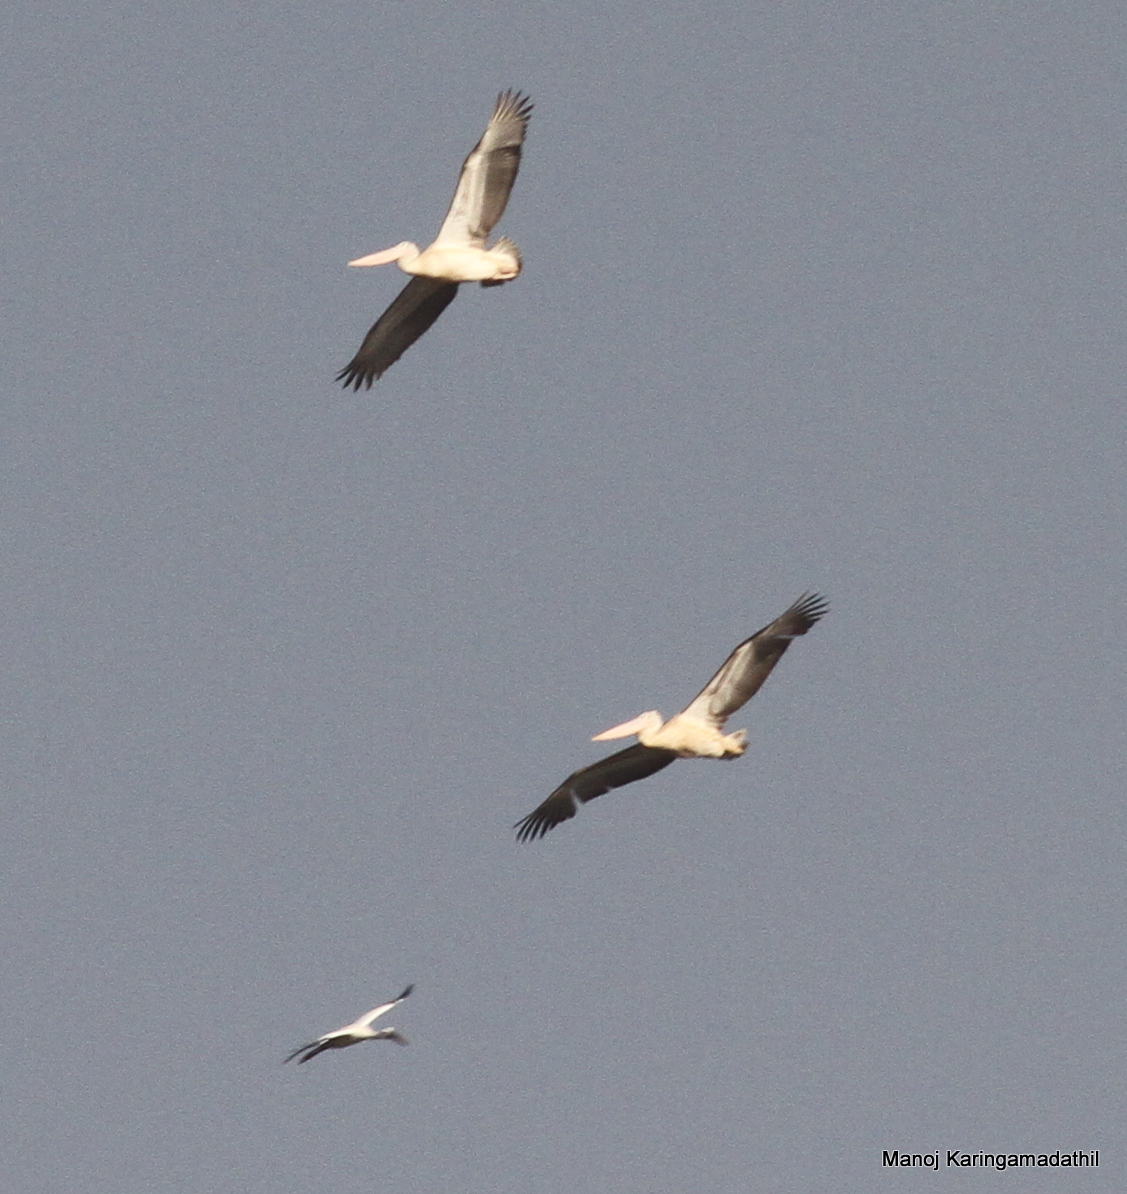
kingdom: Animalia
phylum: Chordata
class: Aves
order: Pelecaniformes
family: Pelecanidae
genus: Pelecanus
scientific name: Pelecanus philippensis
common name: Spot-billed pelican
